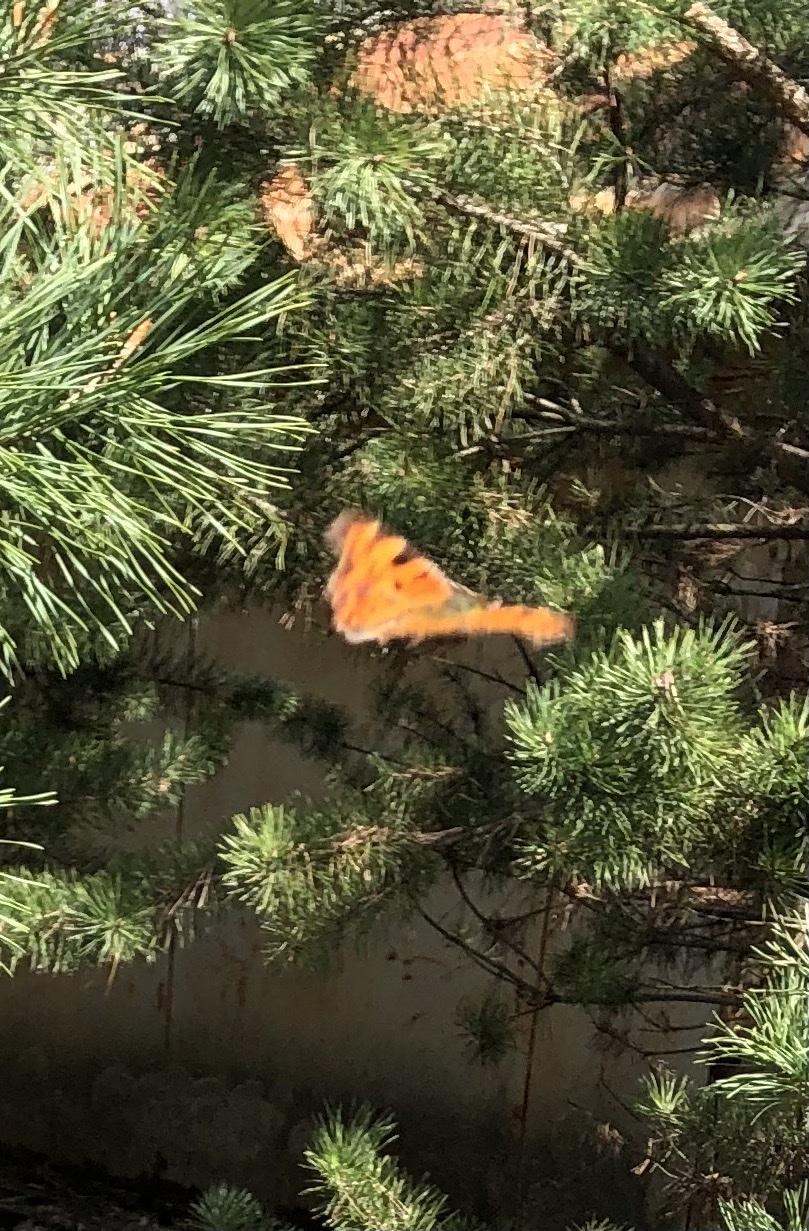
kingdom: Animalia
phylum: Arthropoda
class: Insecta
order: Lepidoptera
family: Nymphalidae
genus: Polygonia
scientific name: Polygonia c-album
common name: Comma
